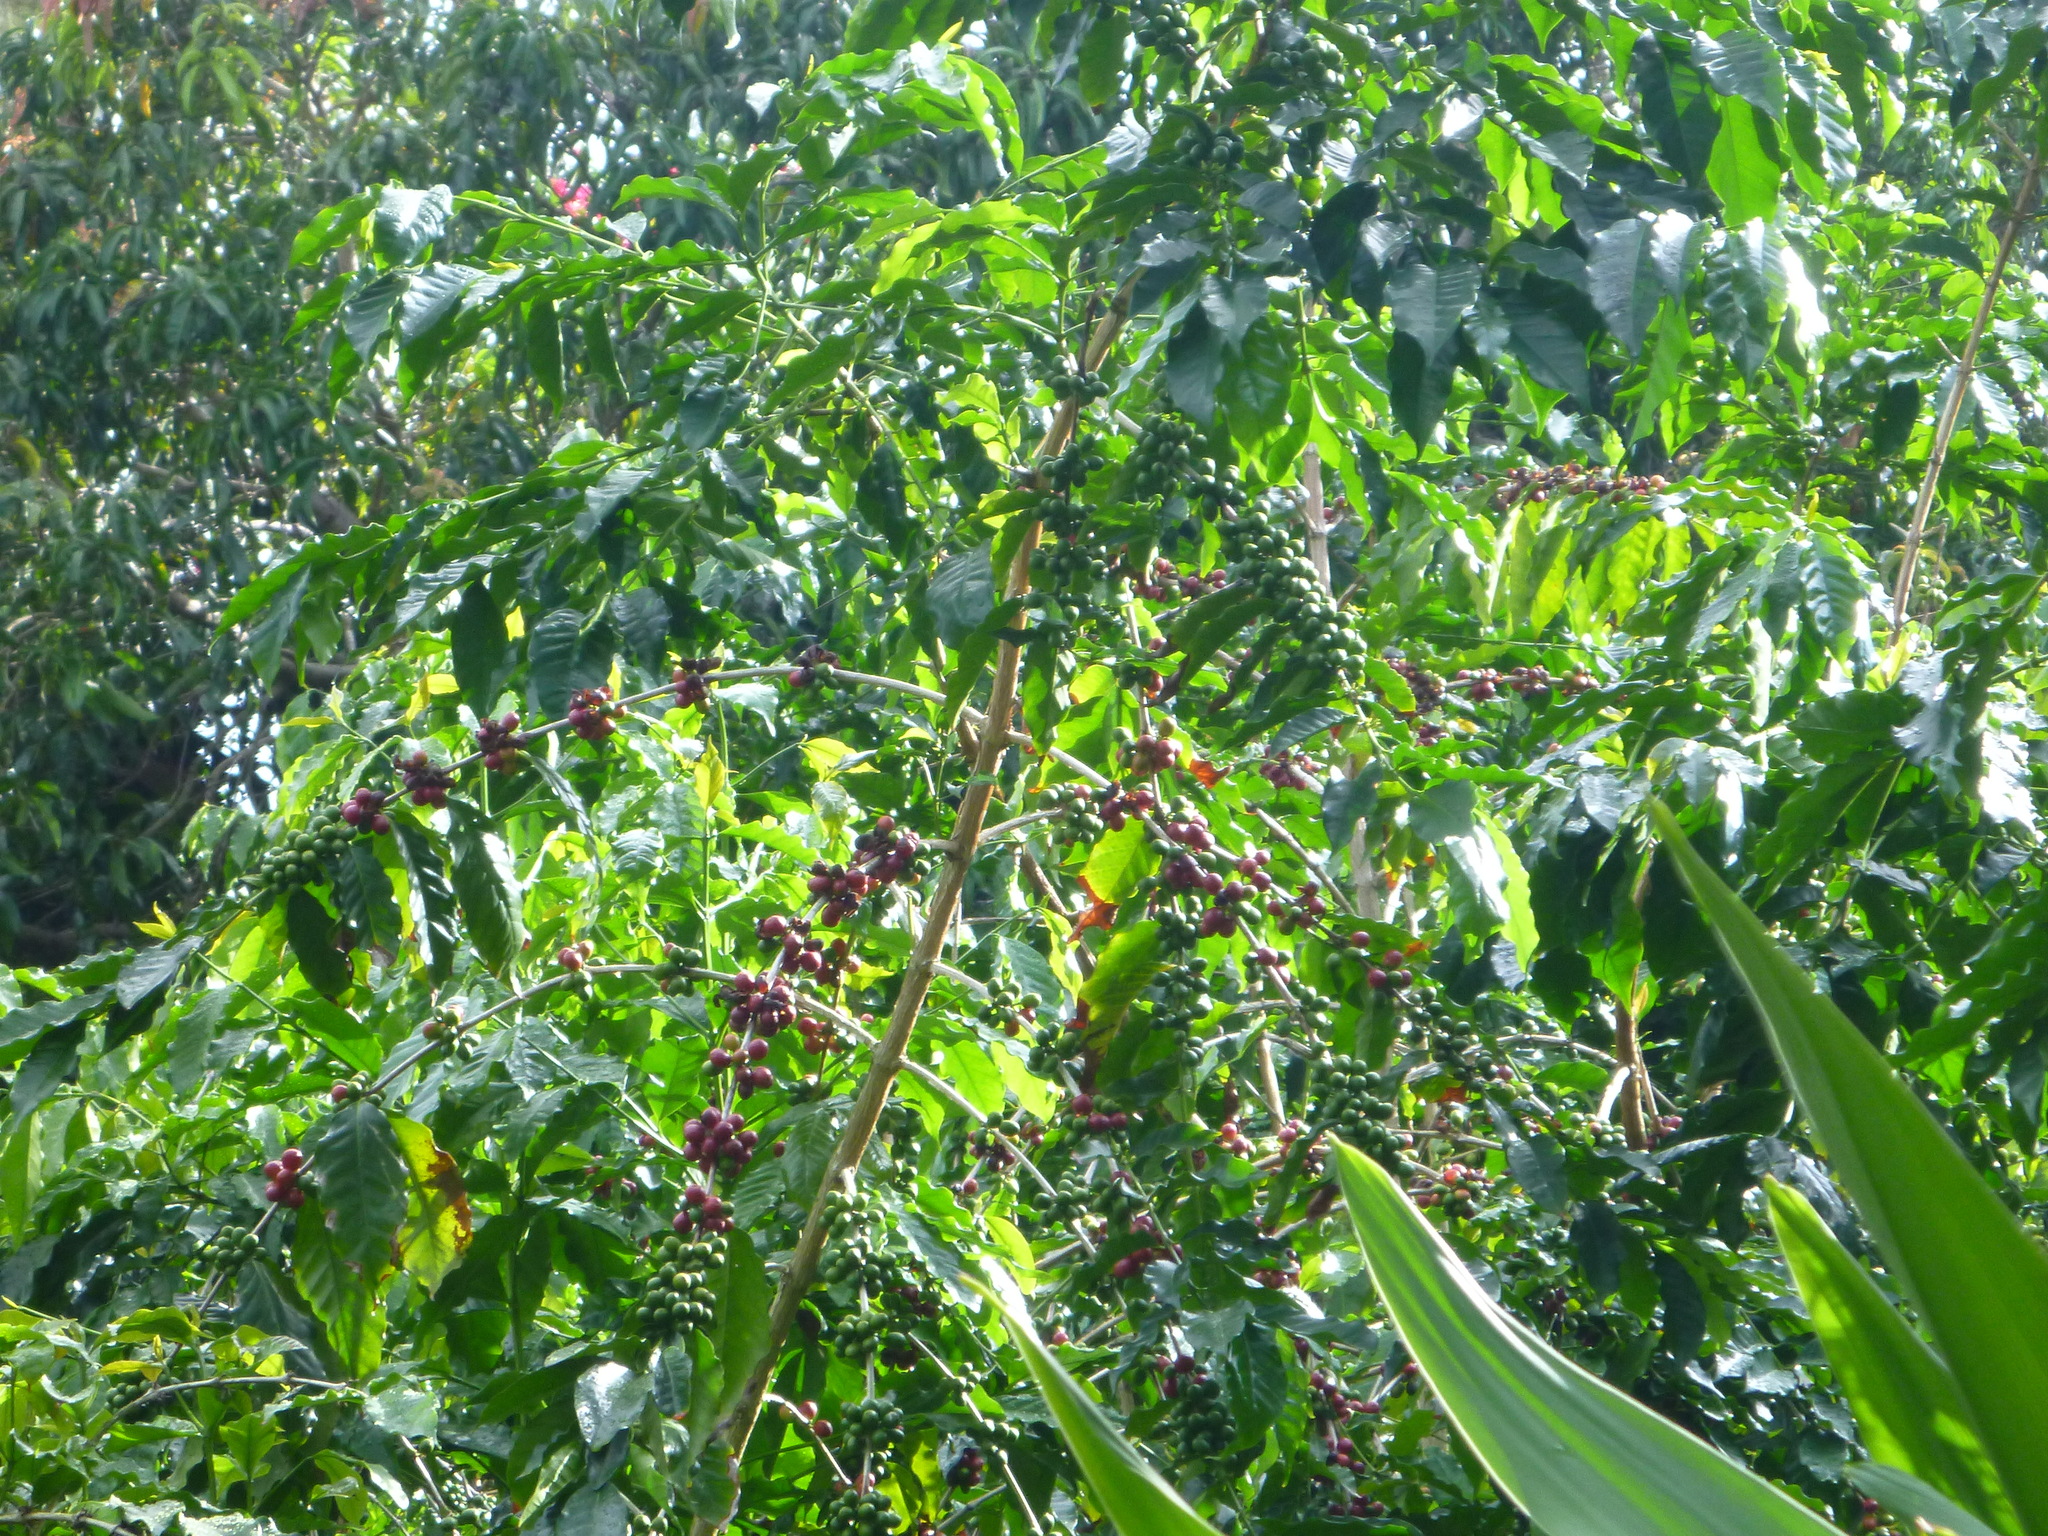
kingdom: Plantae
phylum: Tracheophyta
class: Magnoliopsida
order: Gentianales
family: Rubiaceae
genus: Coffea
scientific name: Coffea arabica
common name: Coffee
